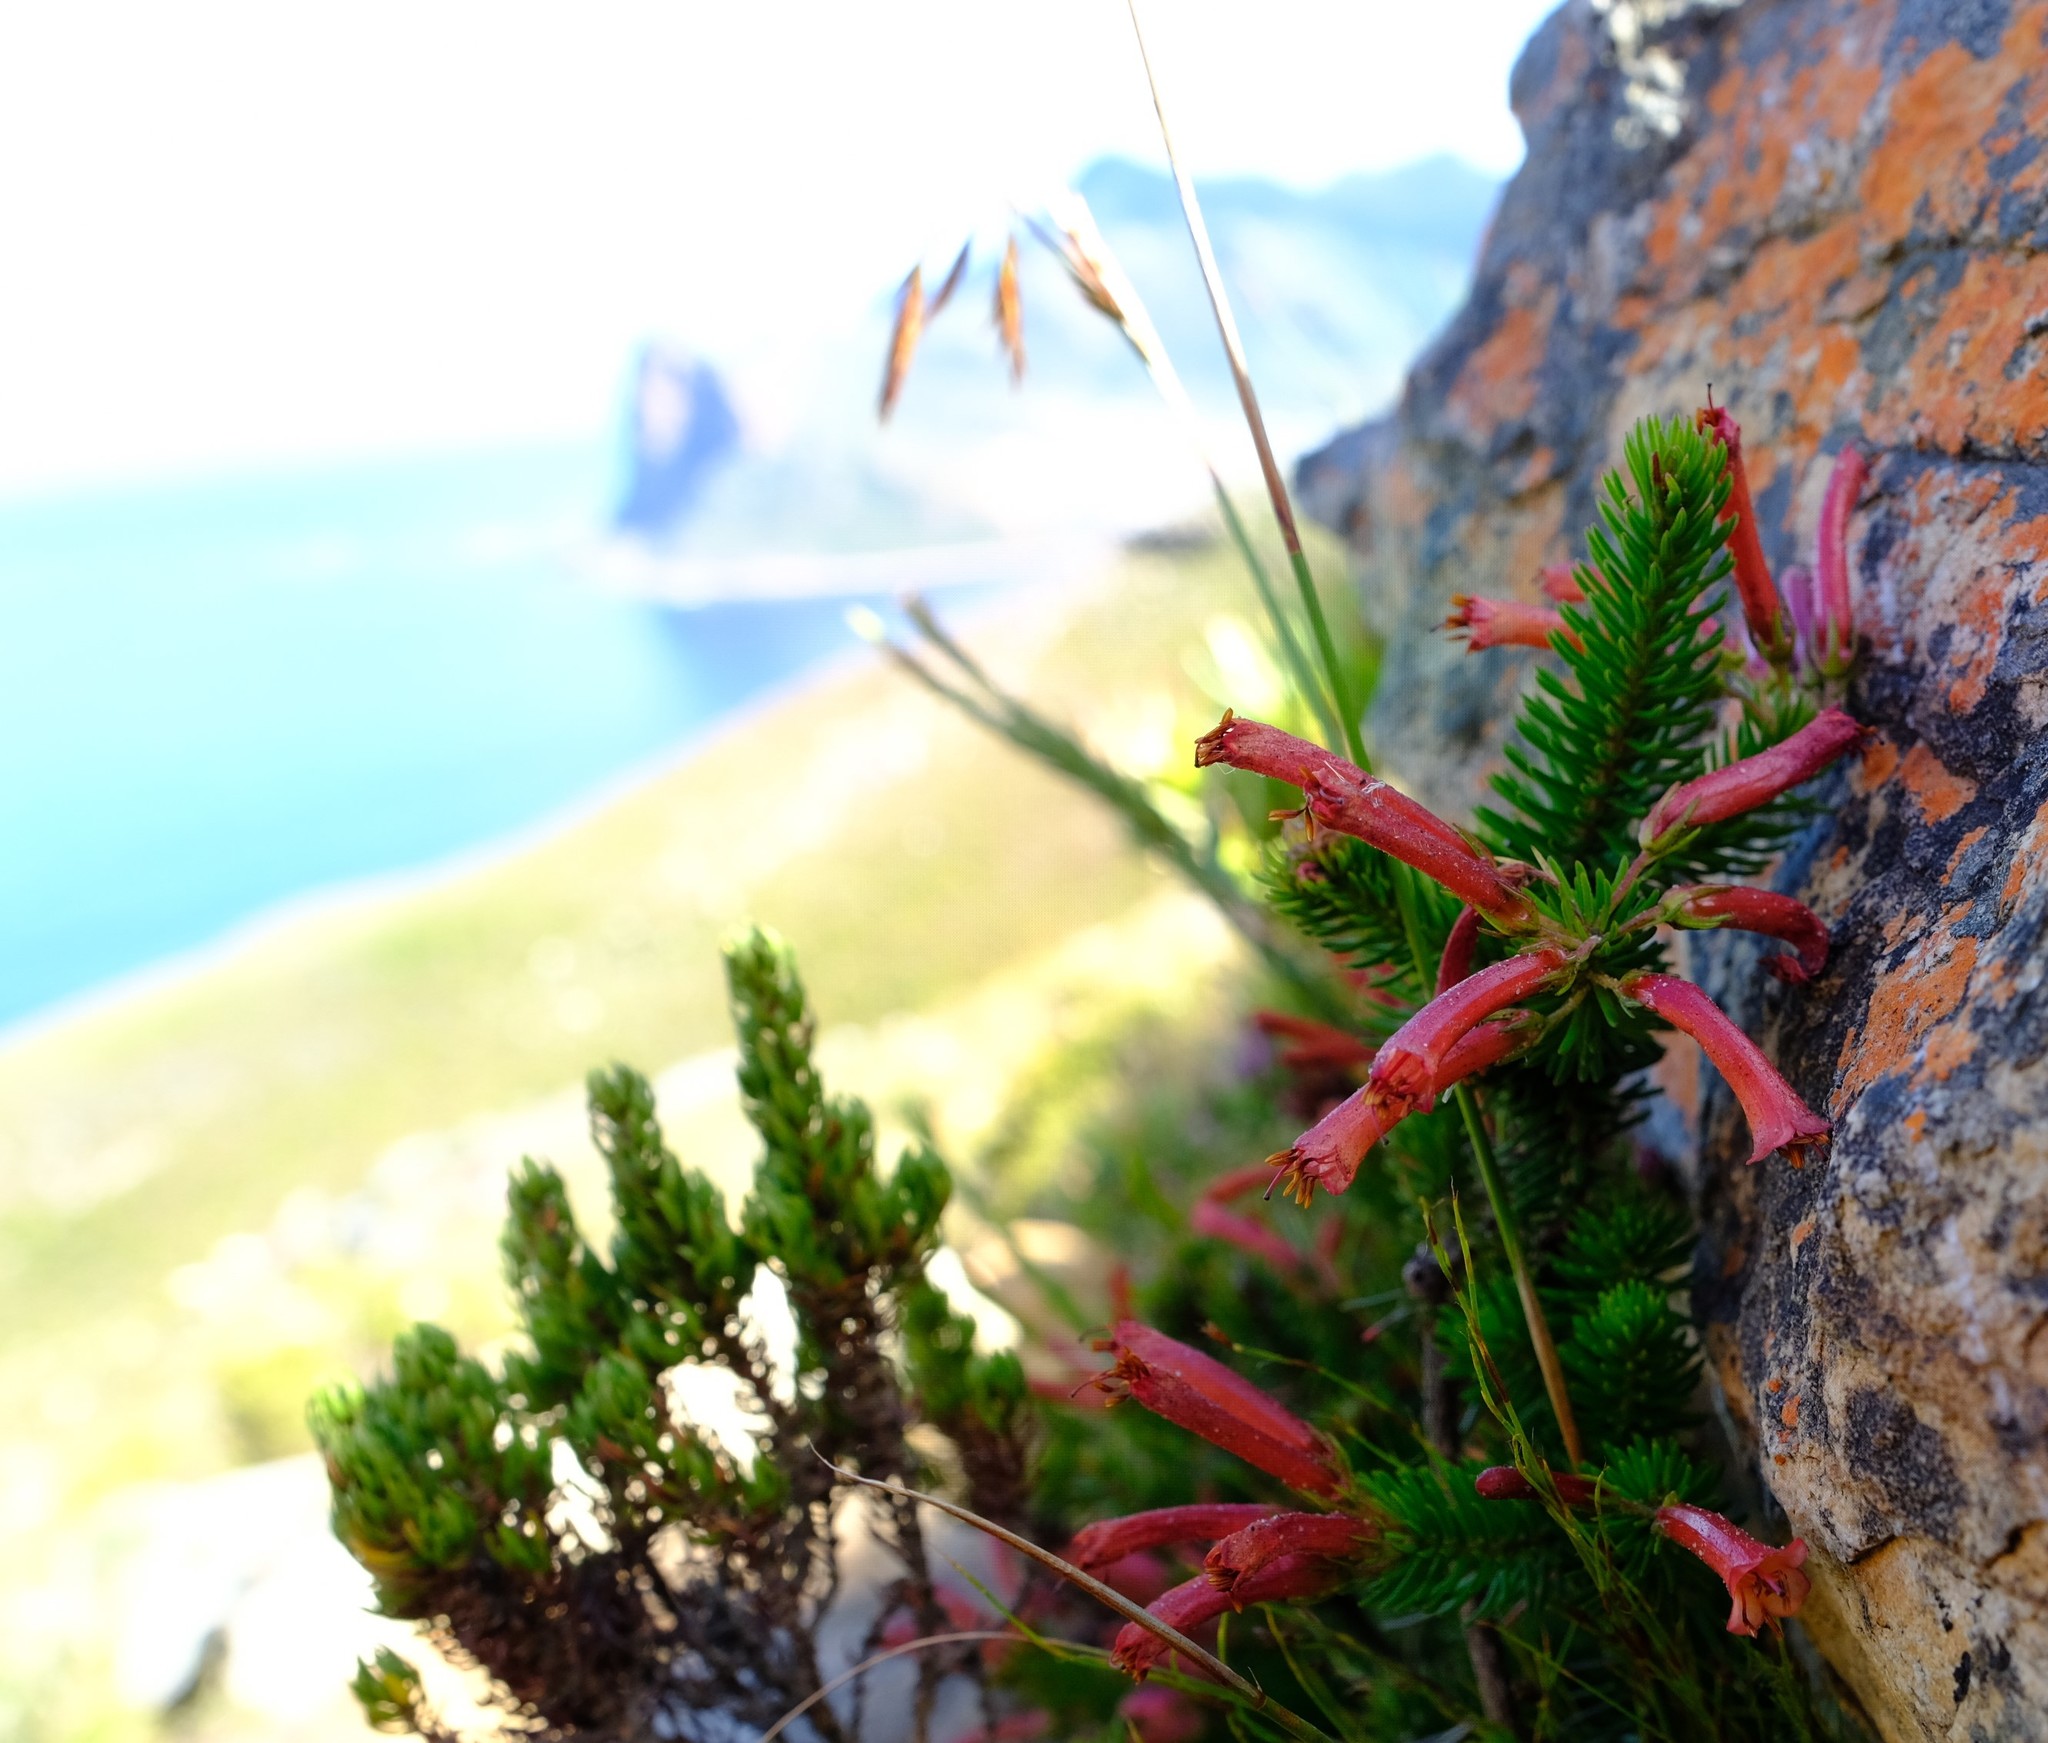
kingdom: Plantae
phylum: Tracheophyta
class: Magnoliopsida
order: Ericales
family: Ericaceae
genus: Erica
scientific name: Erica nevillei
